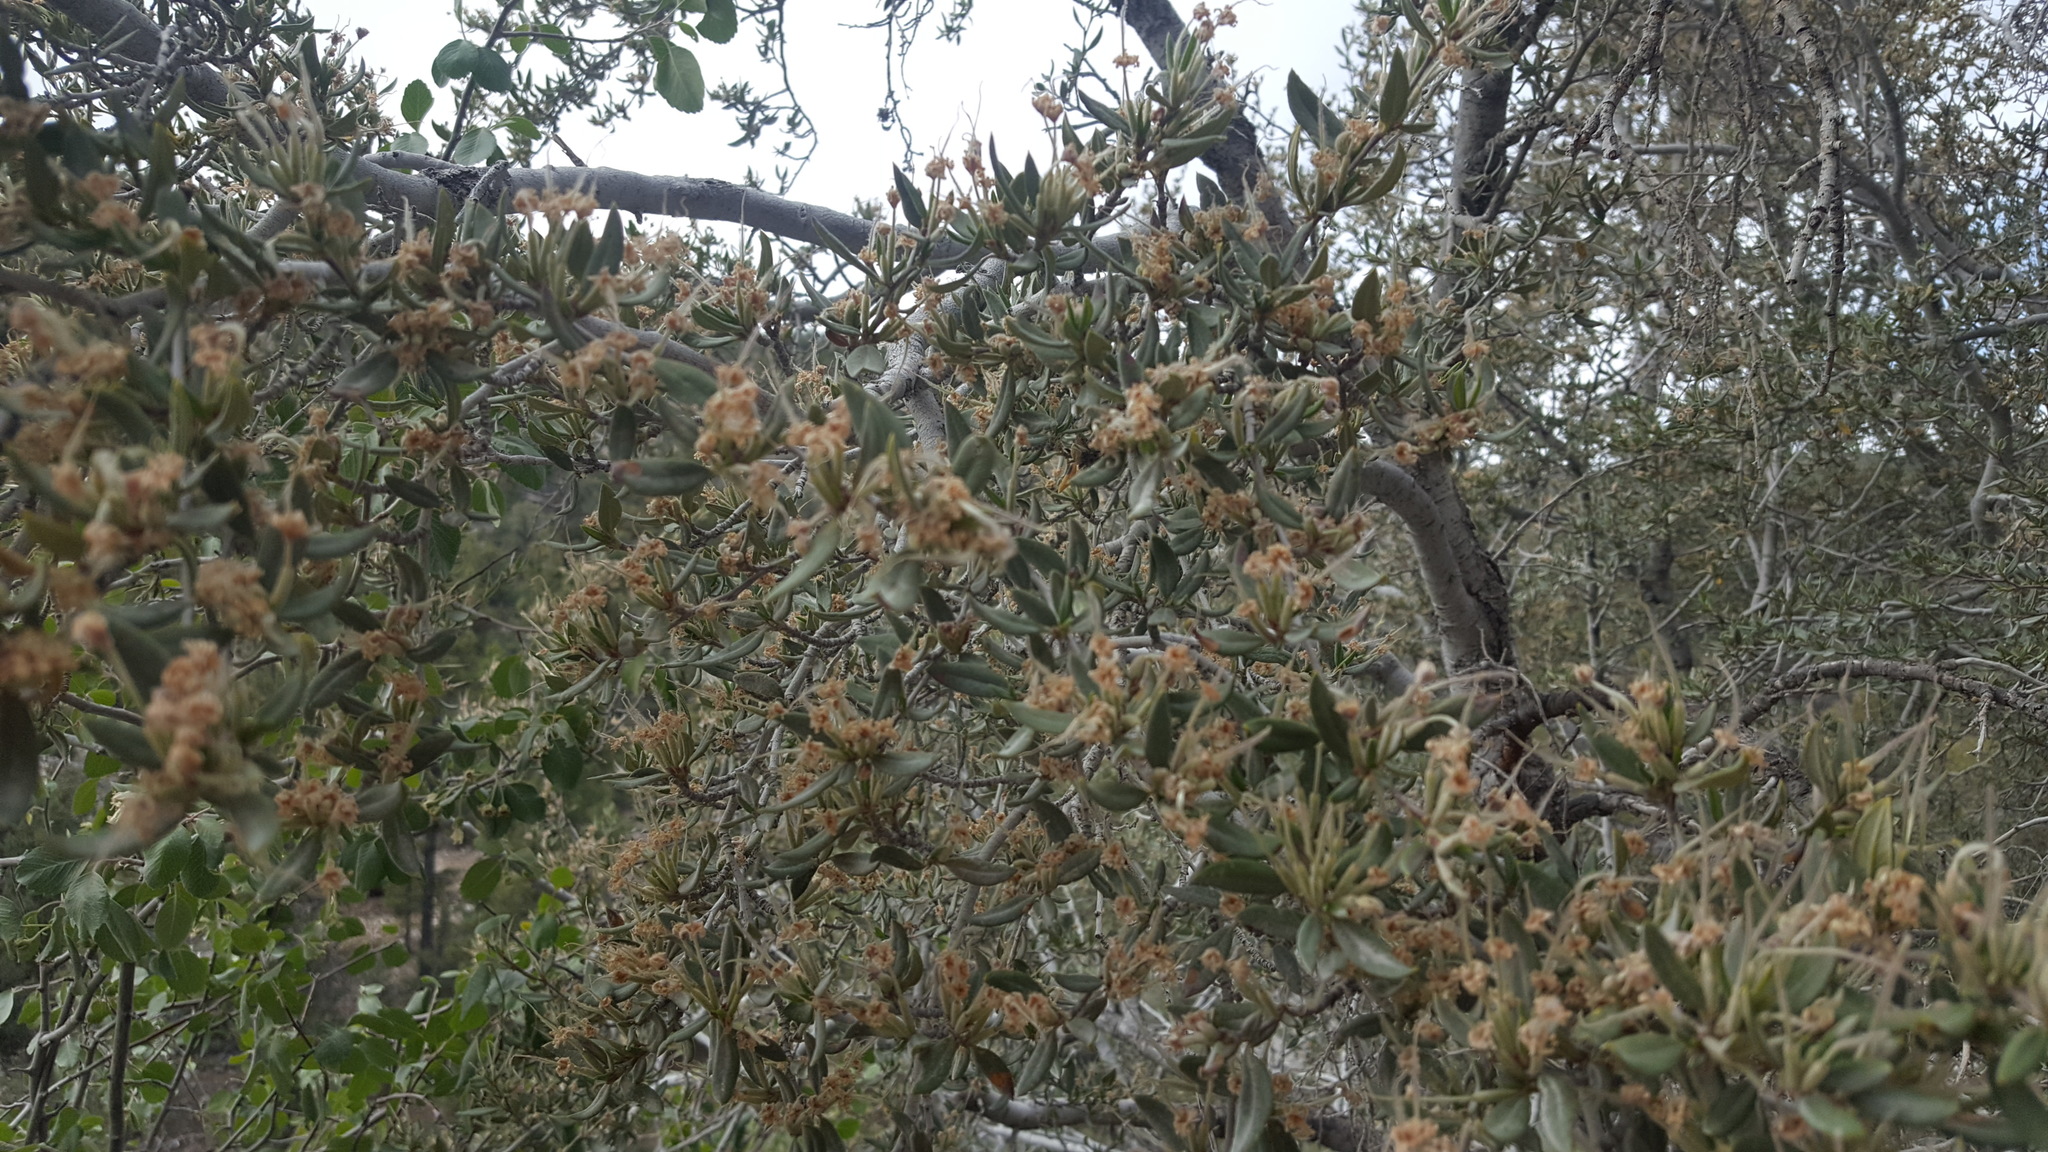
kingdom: Plantae
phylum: Tracheophyta
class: Magnoliopsida
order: Rosales
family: Rosaceae
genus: Cercocarpus
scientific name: Cercocarpus ledifolius
